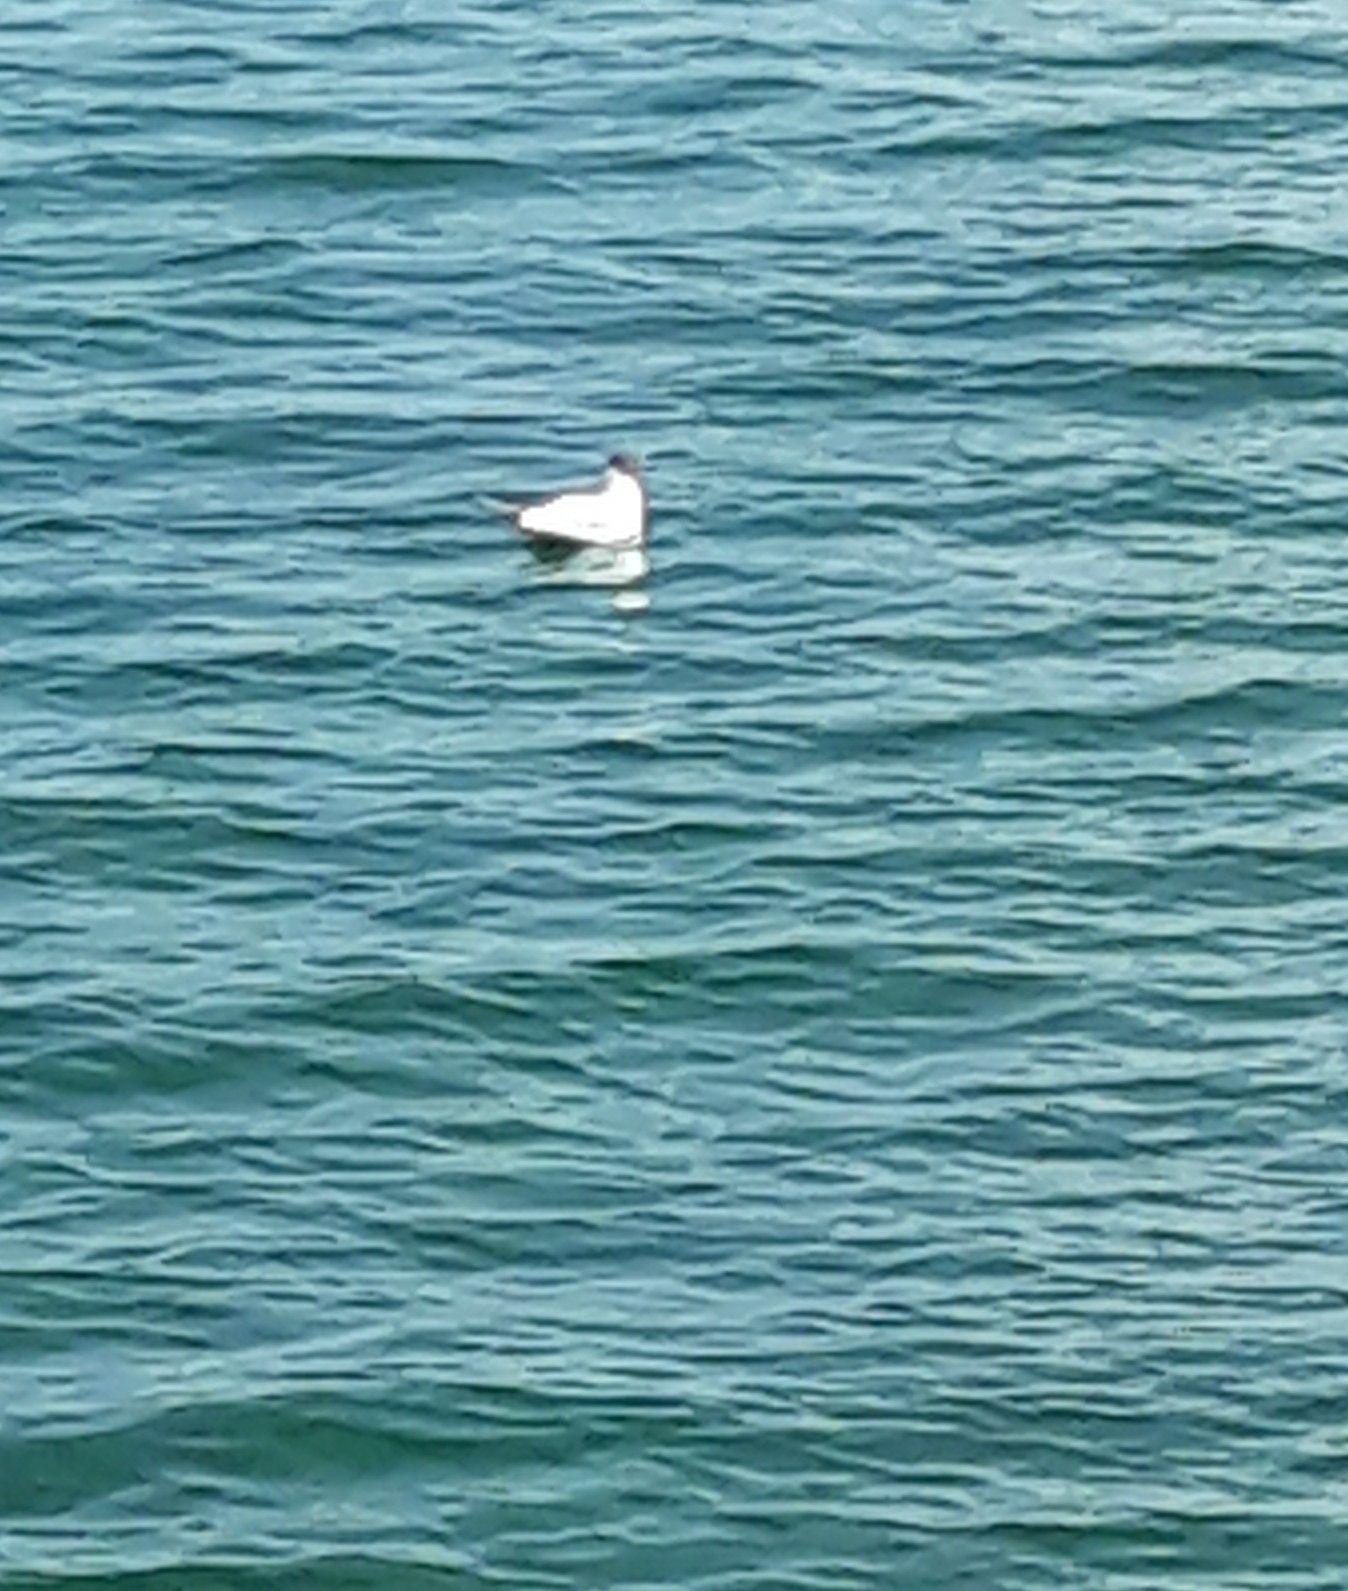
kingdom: Animalia
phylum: Chordata
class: Aves
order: Charadriiformes
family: Laridae
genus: Chroicocephalus
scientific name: Chroicocephalus ridibundus
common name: Black-headed gull
